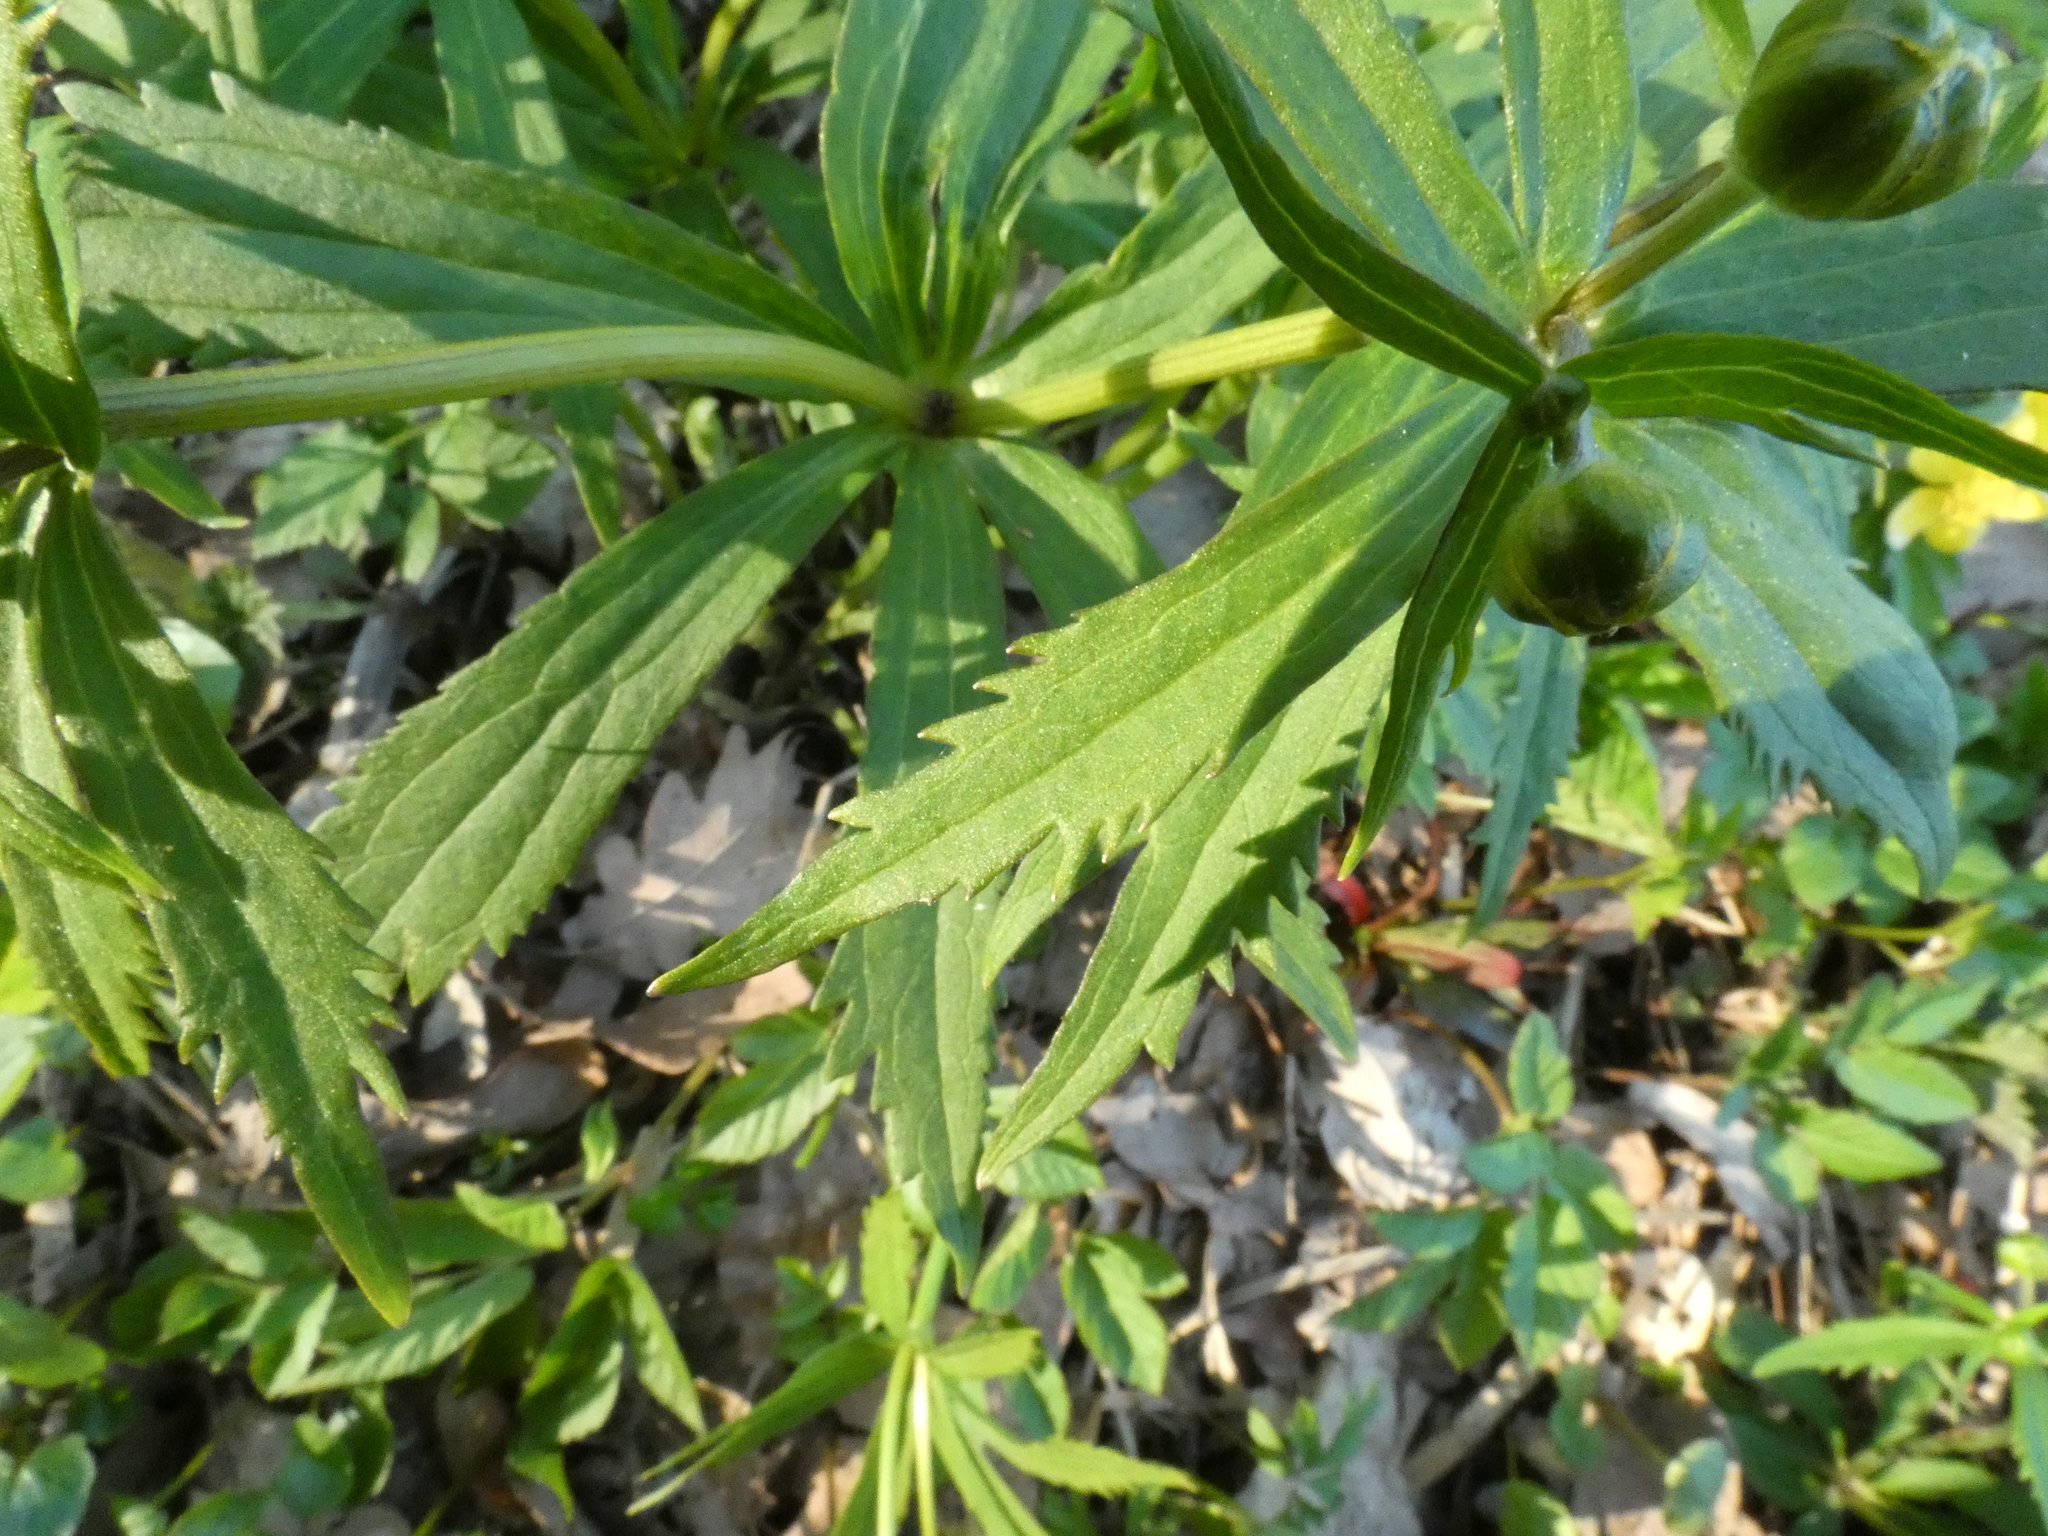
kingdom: Plantae
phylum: Tracheophyta
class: Magnoliopsida
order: Ranunculales
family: Ranunculaceae
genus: Ranunculus
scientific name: Ranunculus cassubicus
